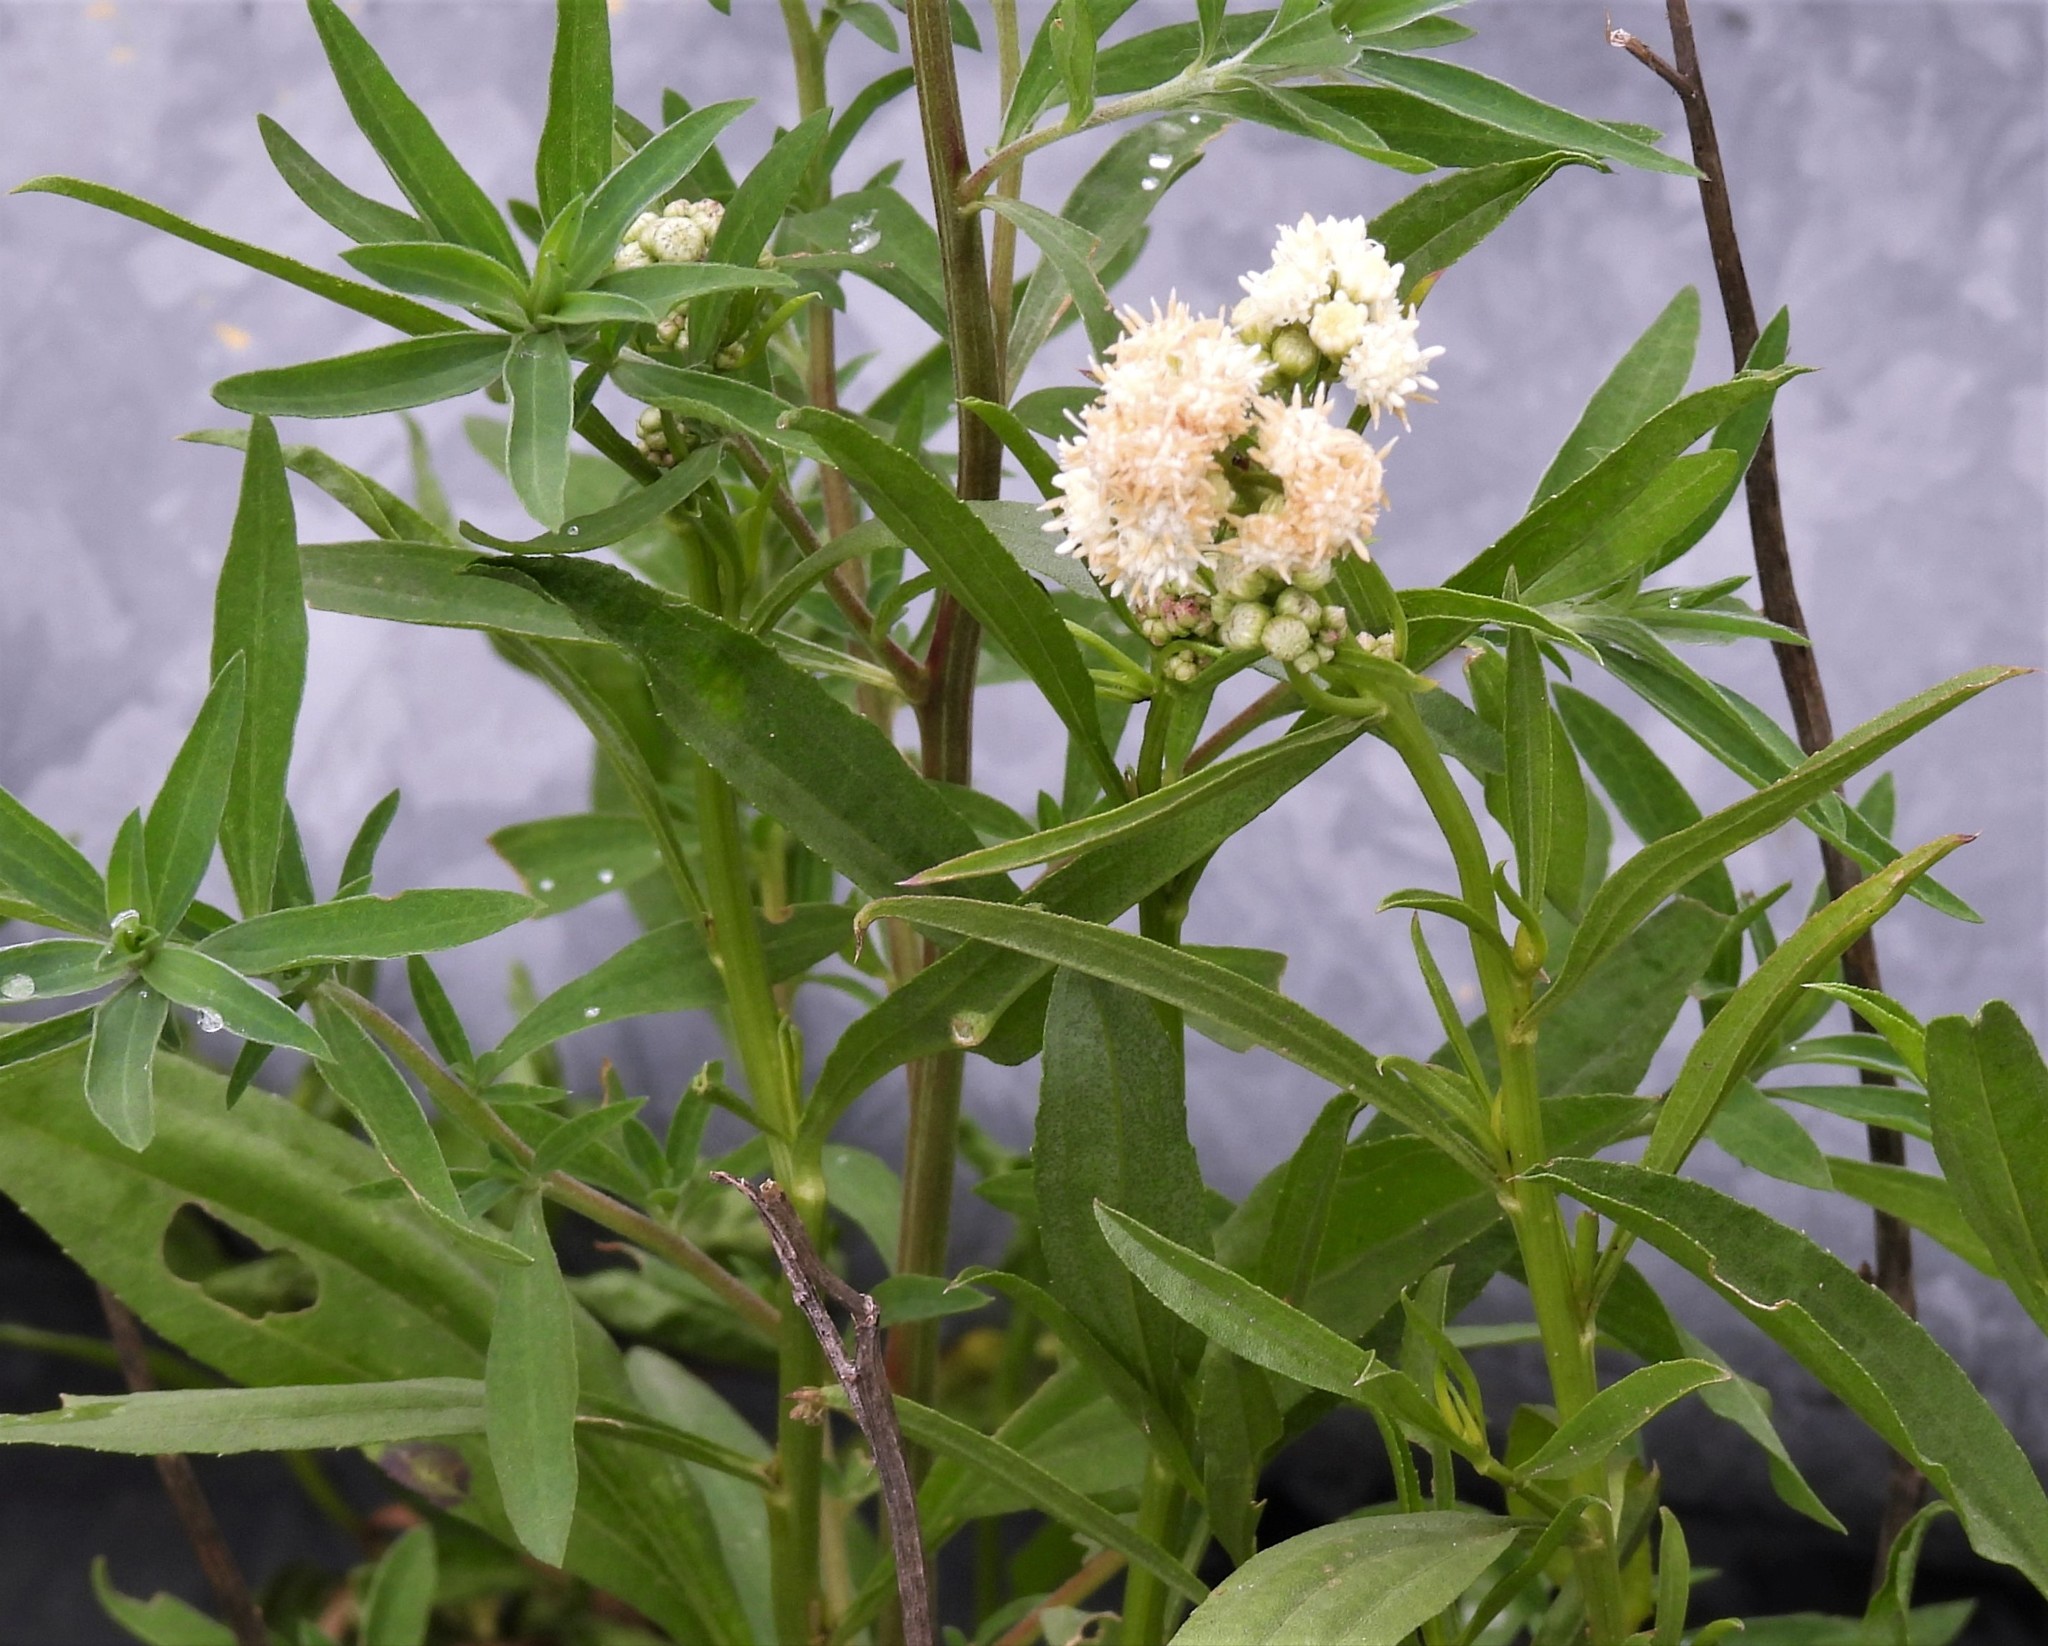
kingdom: Plantae
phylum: Tracheophyta
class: Magnoliopsida
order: Asterales
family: Asteraceae
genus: Baccharis
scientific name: Baccharis salicifolia
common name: Sticky baccharis
